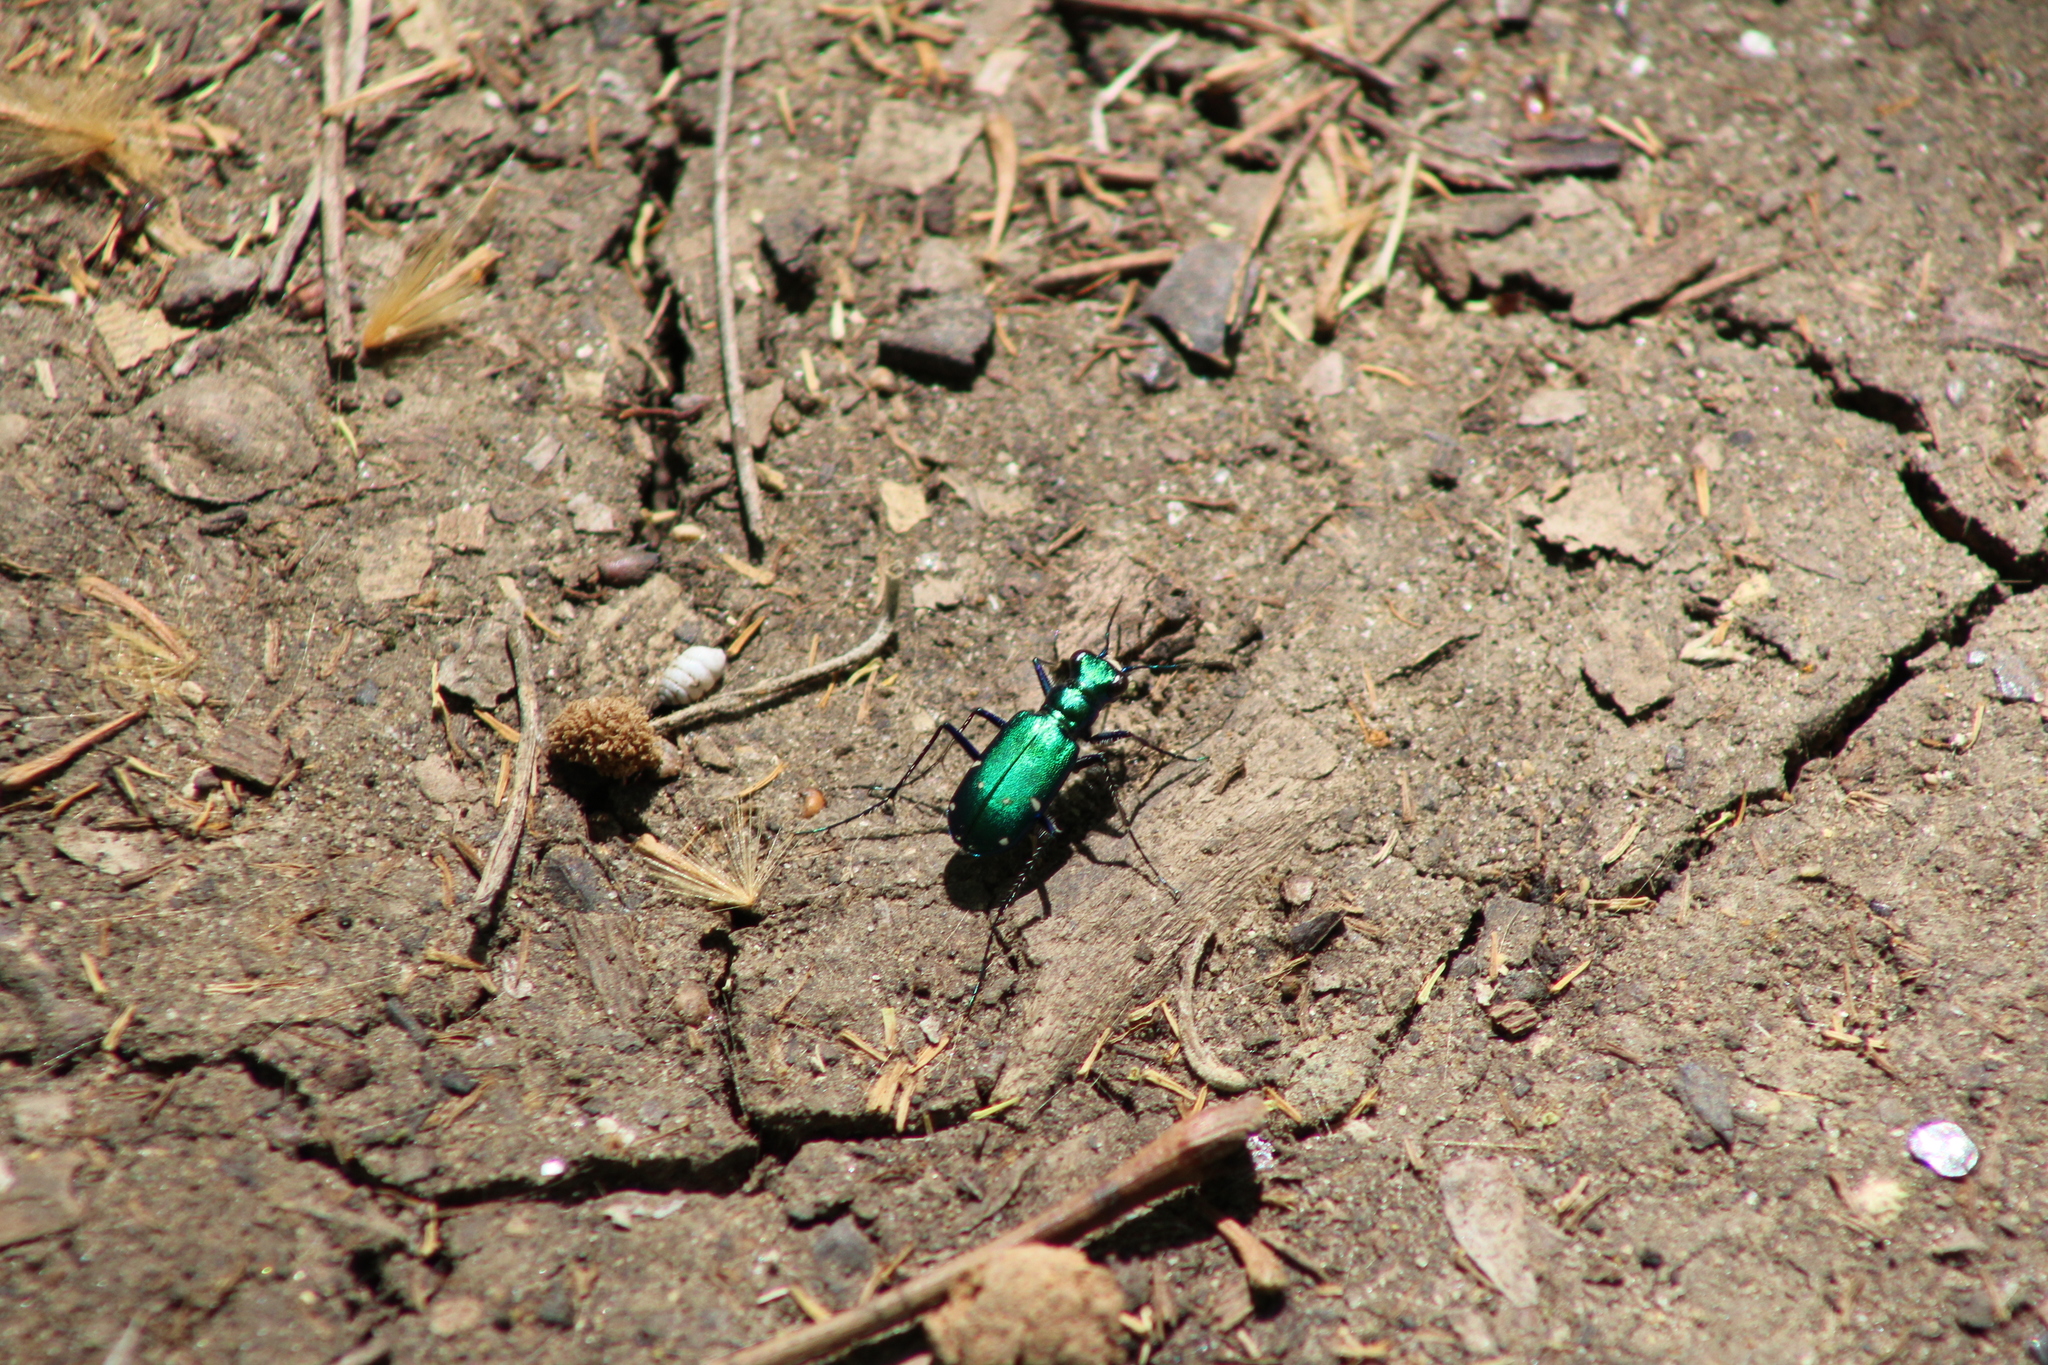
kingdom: Animalia
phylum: Arthropoda
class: Insecta
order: Coleoptera
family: Carabidae
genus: Cicindela
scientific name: Cicindela sexguttata
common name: Six-spotted tiger beetle
